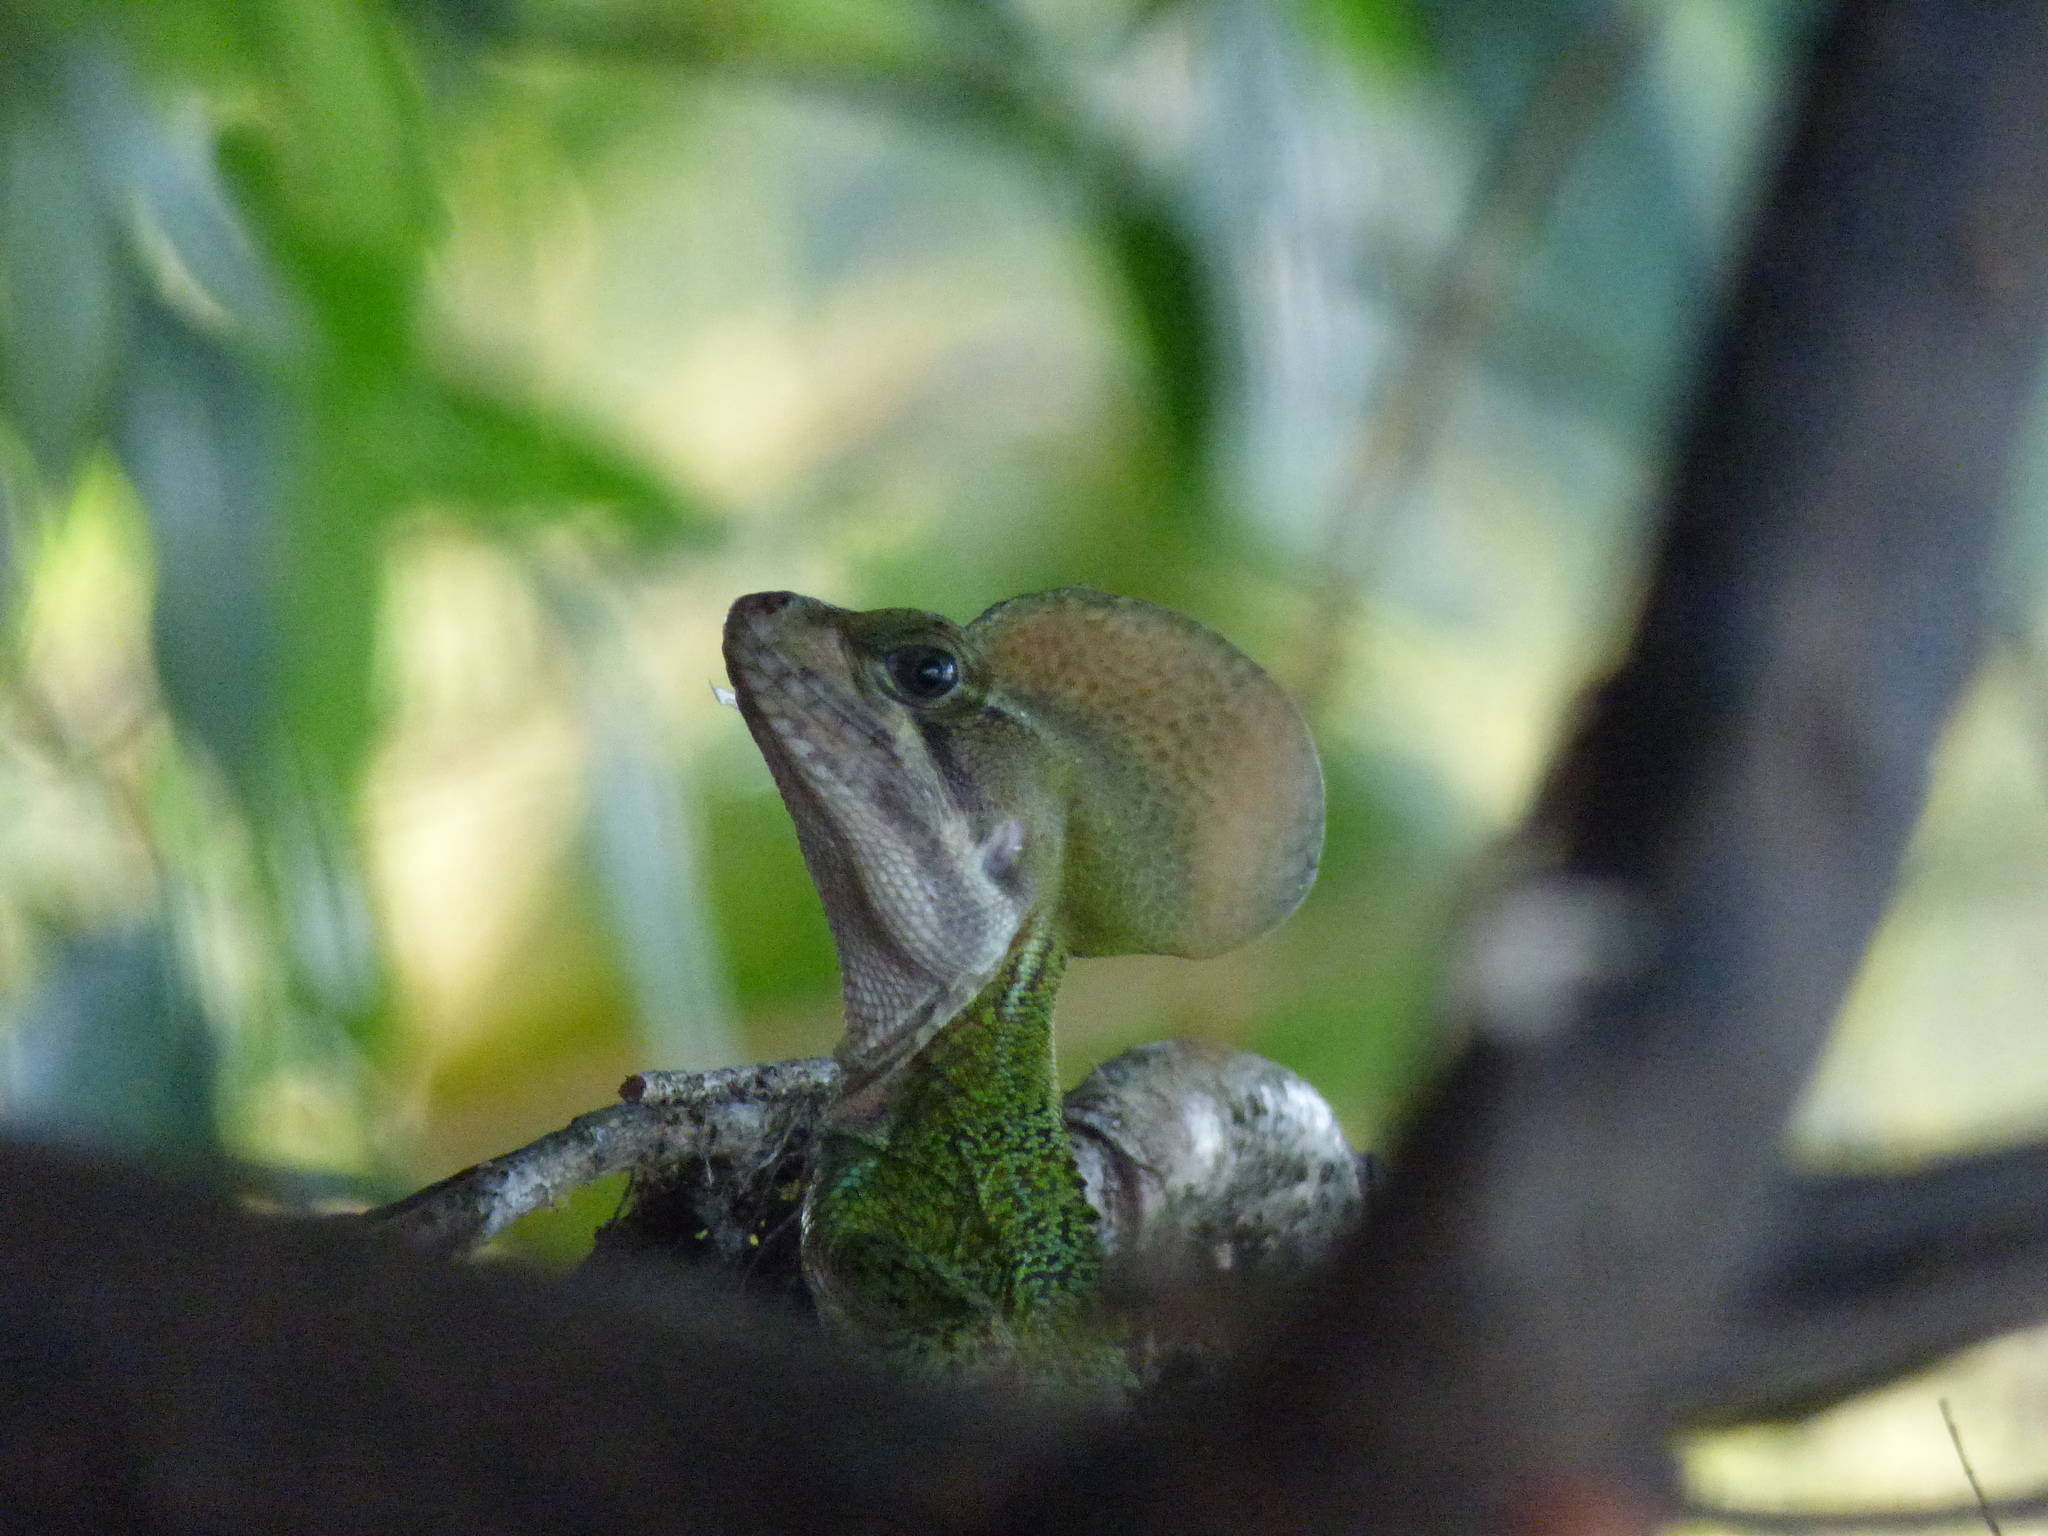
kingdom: Animalia
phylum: Chordata
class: Squamata
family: Corytophanidae
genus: Basiliscus
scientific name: Basiliscus galeritus
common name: Western basilisk
